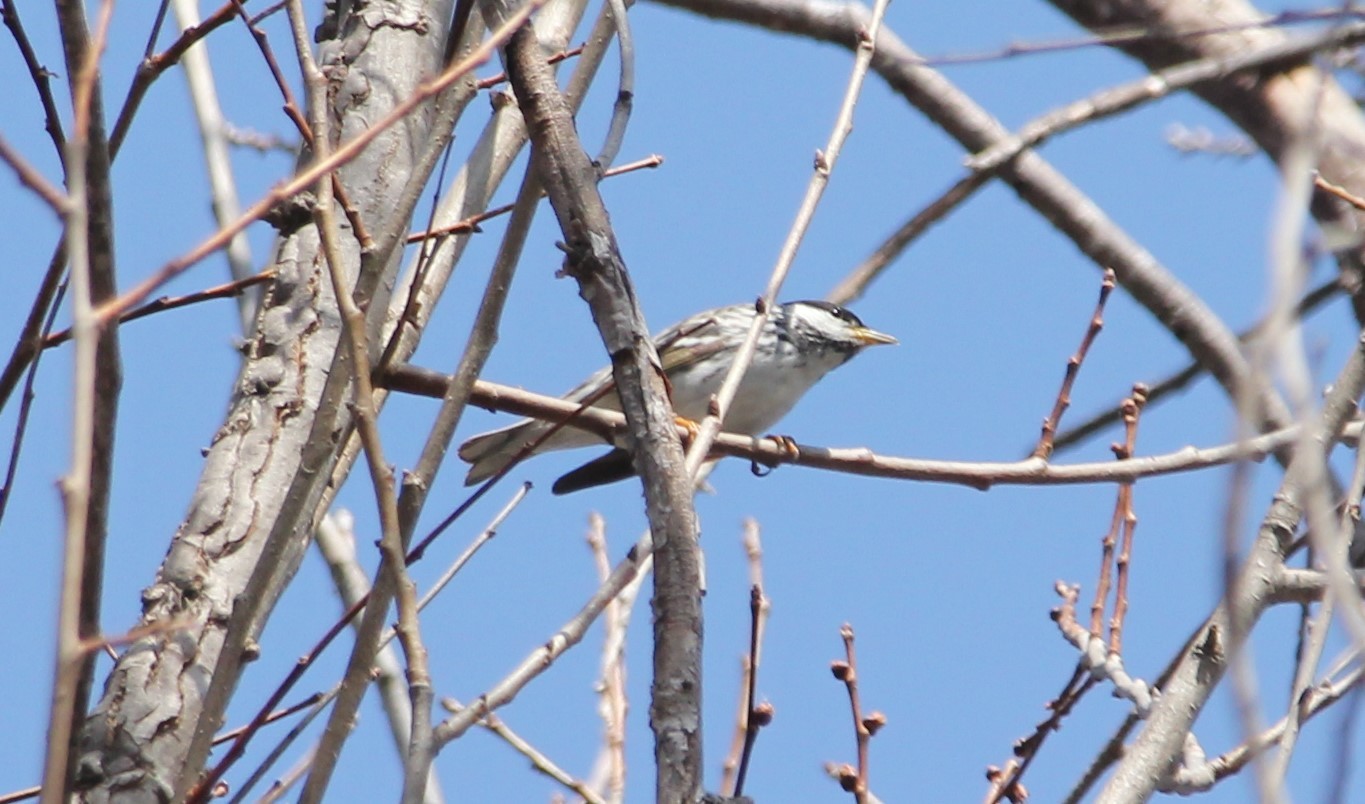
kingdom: Animalia
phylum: Chordata
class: Aves
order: Passeriformes
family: Parulidae
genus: Setophaga
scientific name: Setophaga striata
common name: Blackpoll warbler
